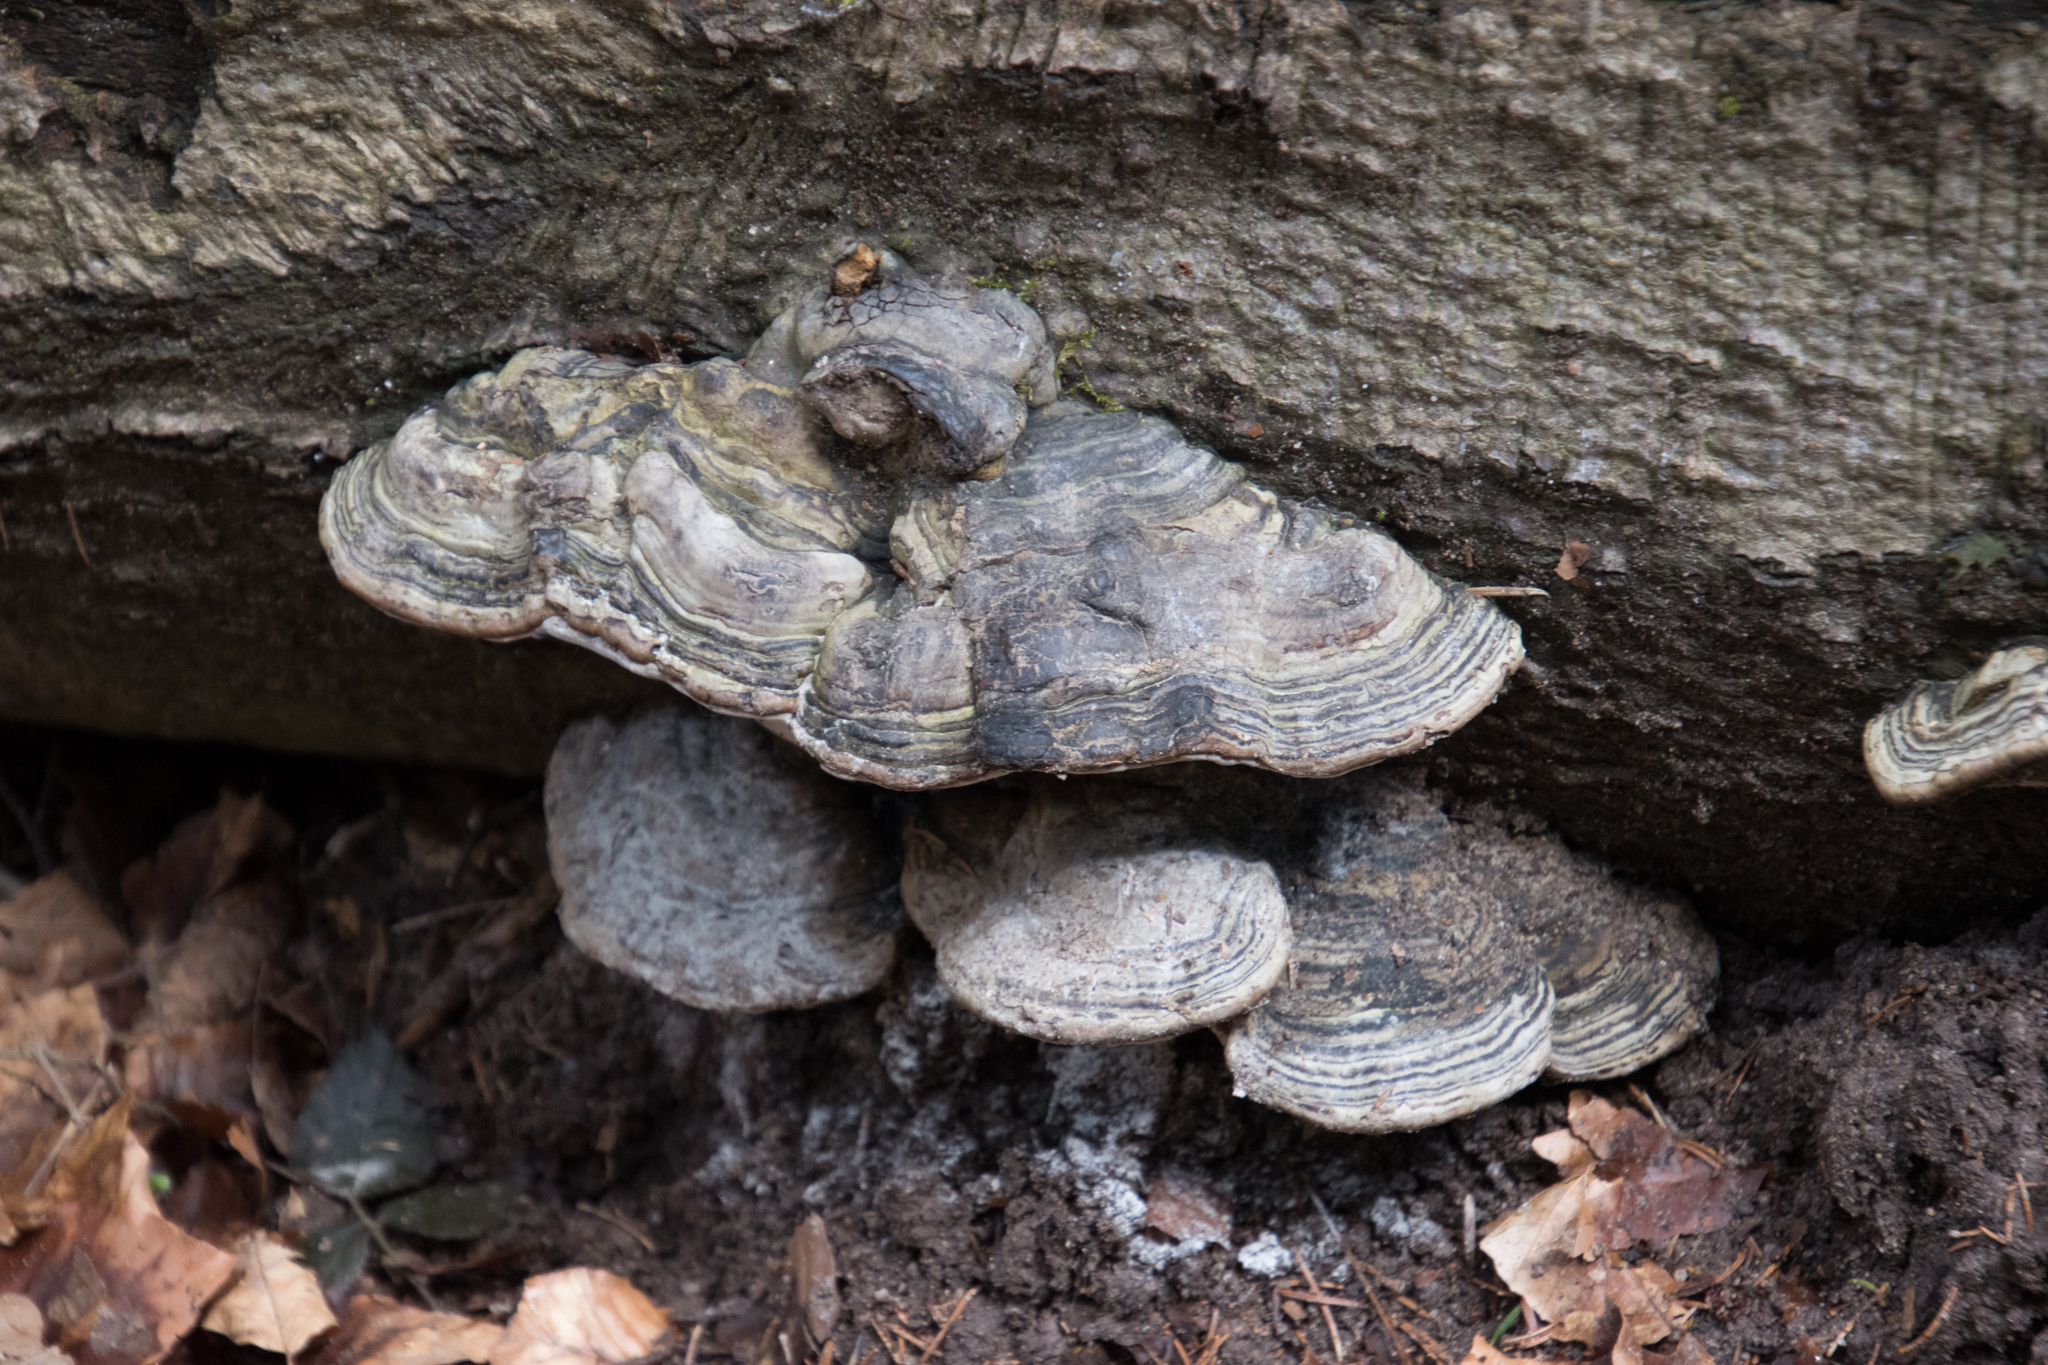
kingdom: Fungi
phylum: Basidiomycota
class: Agaricomycetes
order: Polyporales
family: Polyporaceae
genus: Fomes
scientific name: Fomes fomentarius
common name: Hoof fungus
